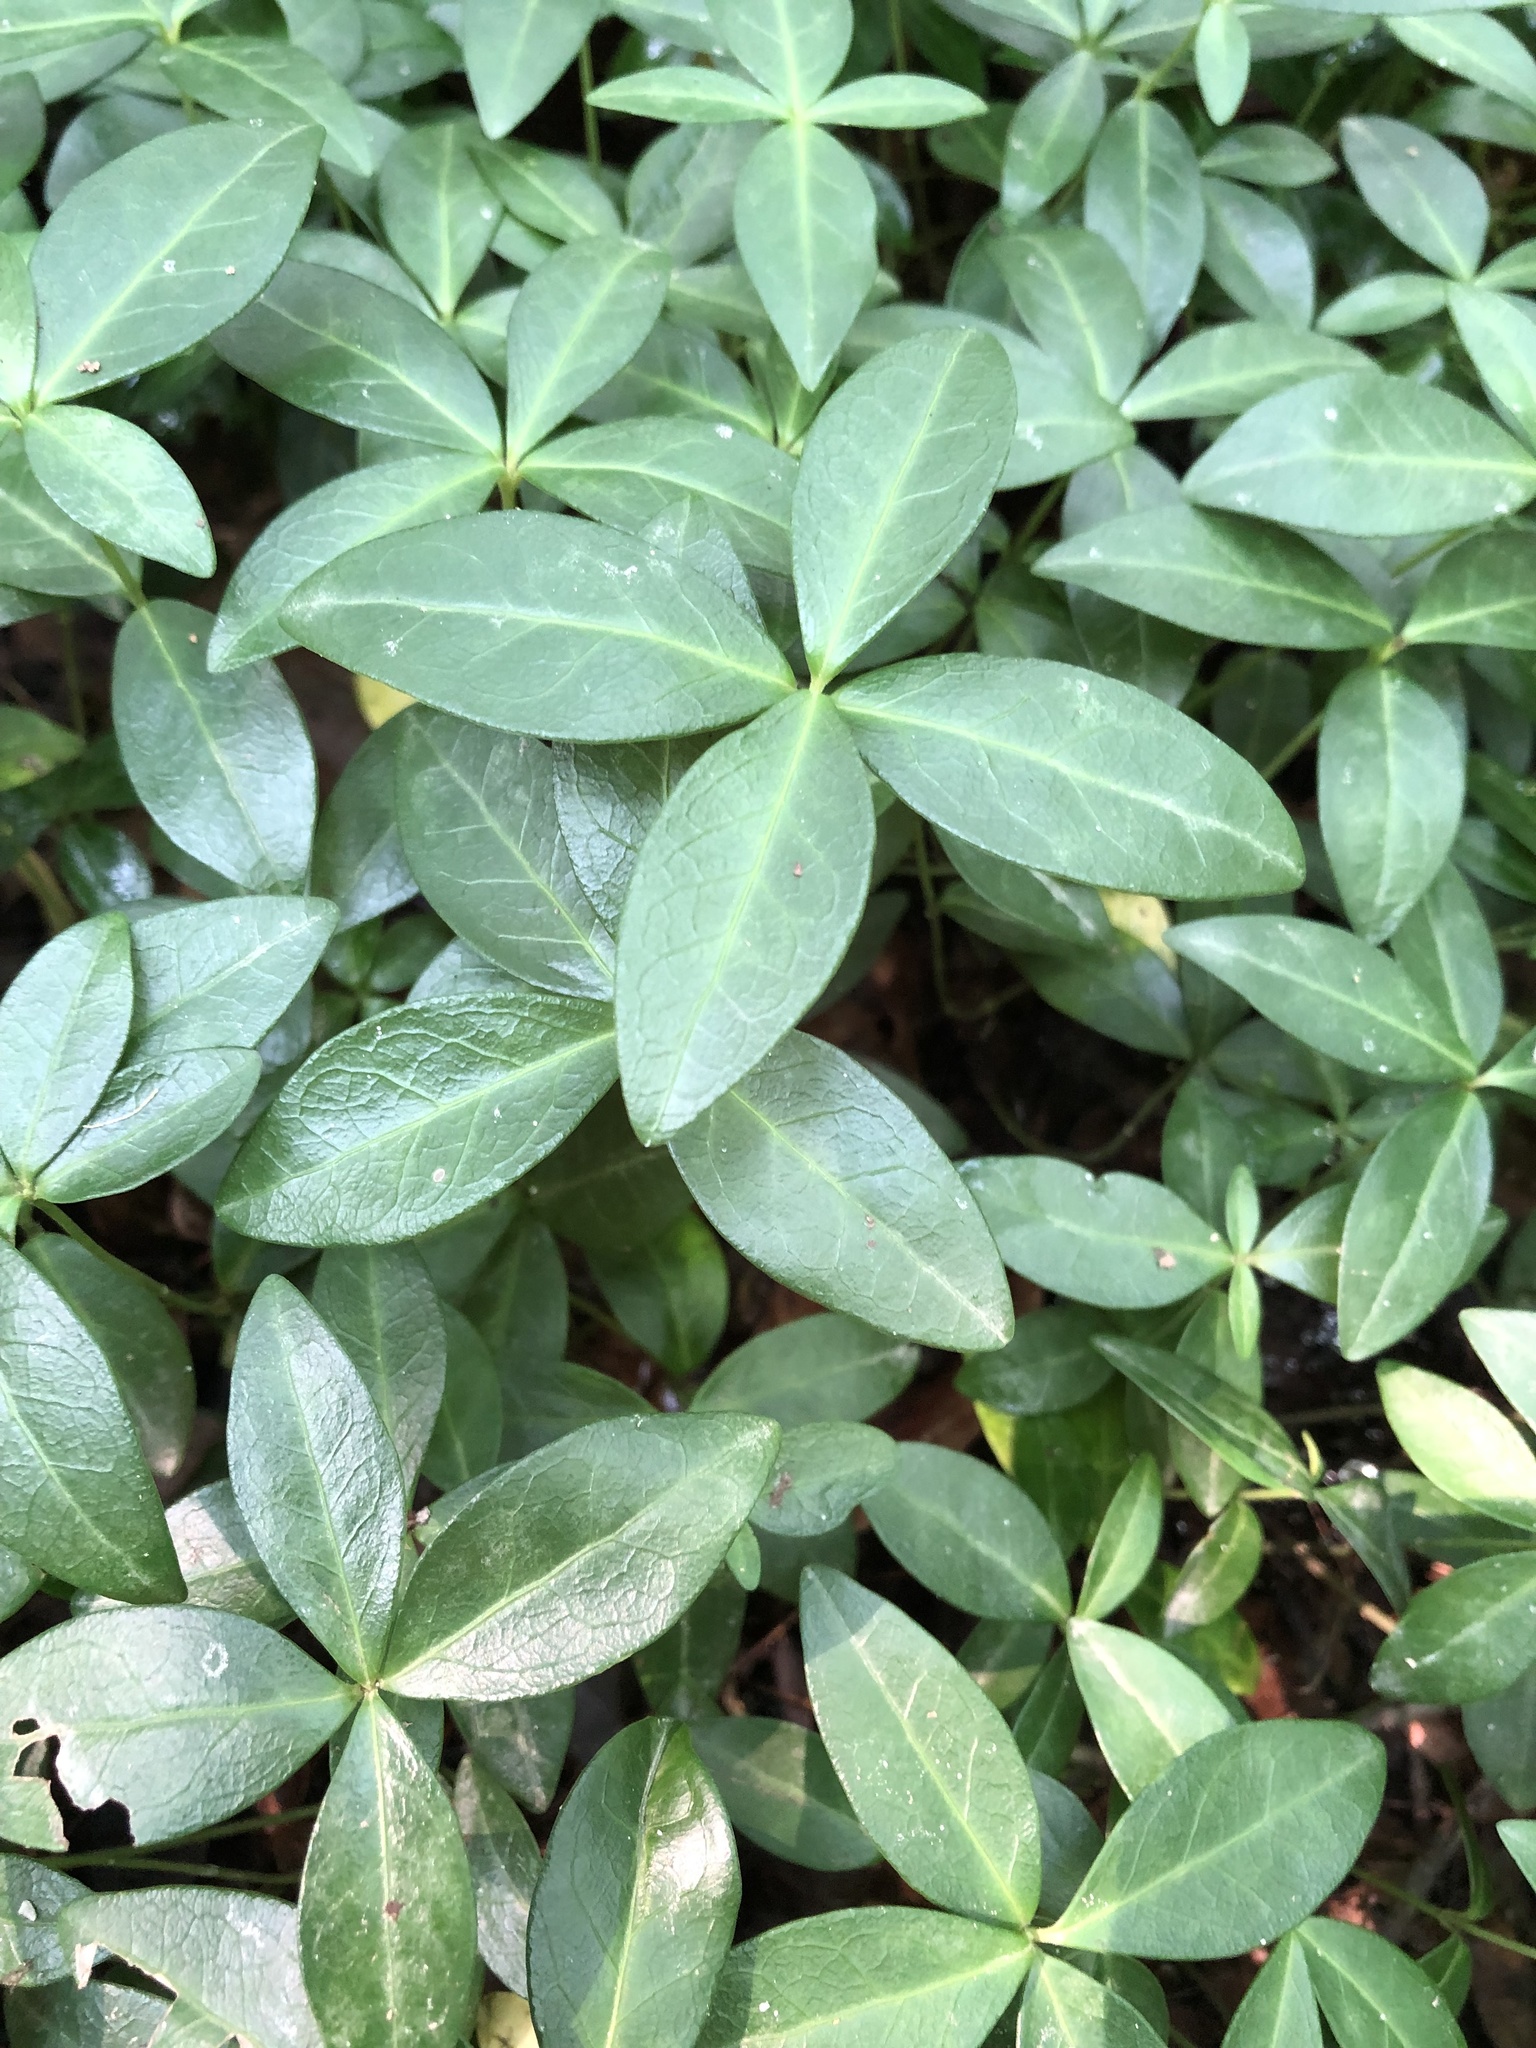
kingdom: Plantae
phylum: Tracheophyta
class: Magnoliopsida
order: Gentianales
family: Apocynaceae
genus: Vinca
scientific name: Vinca minor
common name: Lesser periwinkle
